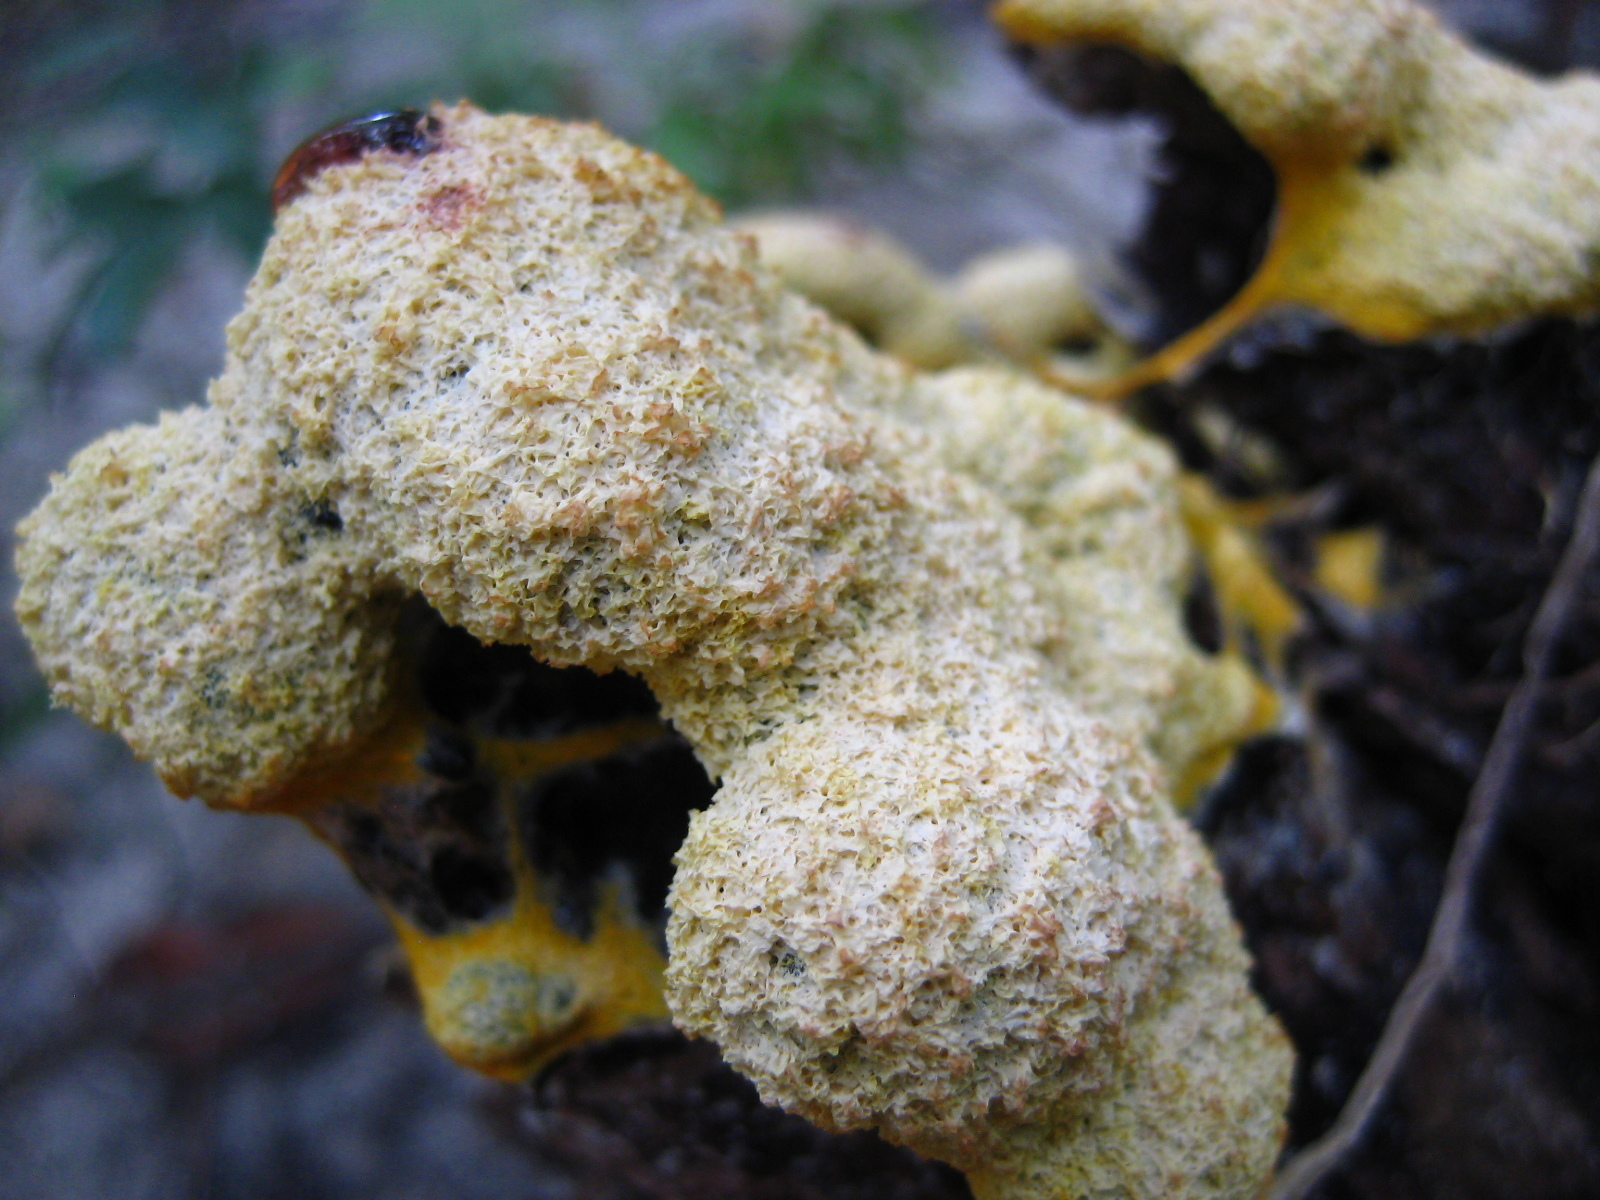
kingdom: Protozoa
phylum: Mycetozoa
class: Myxomycetes
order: Physarales
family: Physaraceae
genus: Fuligo
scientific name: Fuligo septica
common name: Dog vomit slime mold
